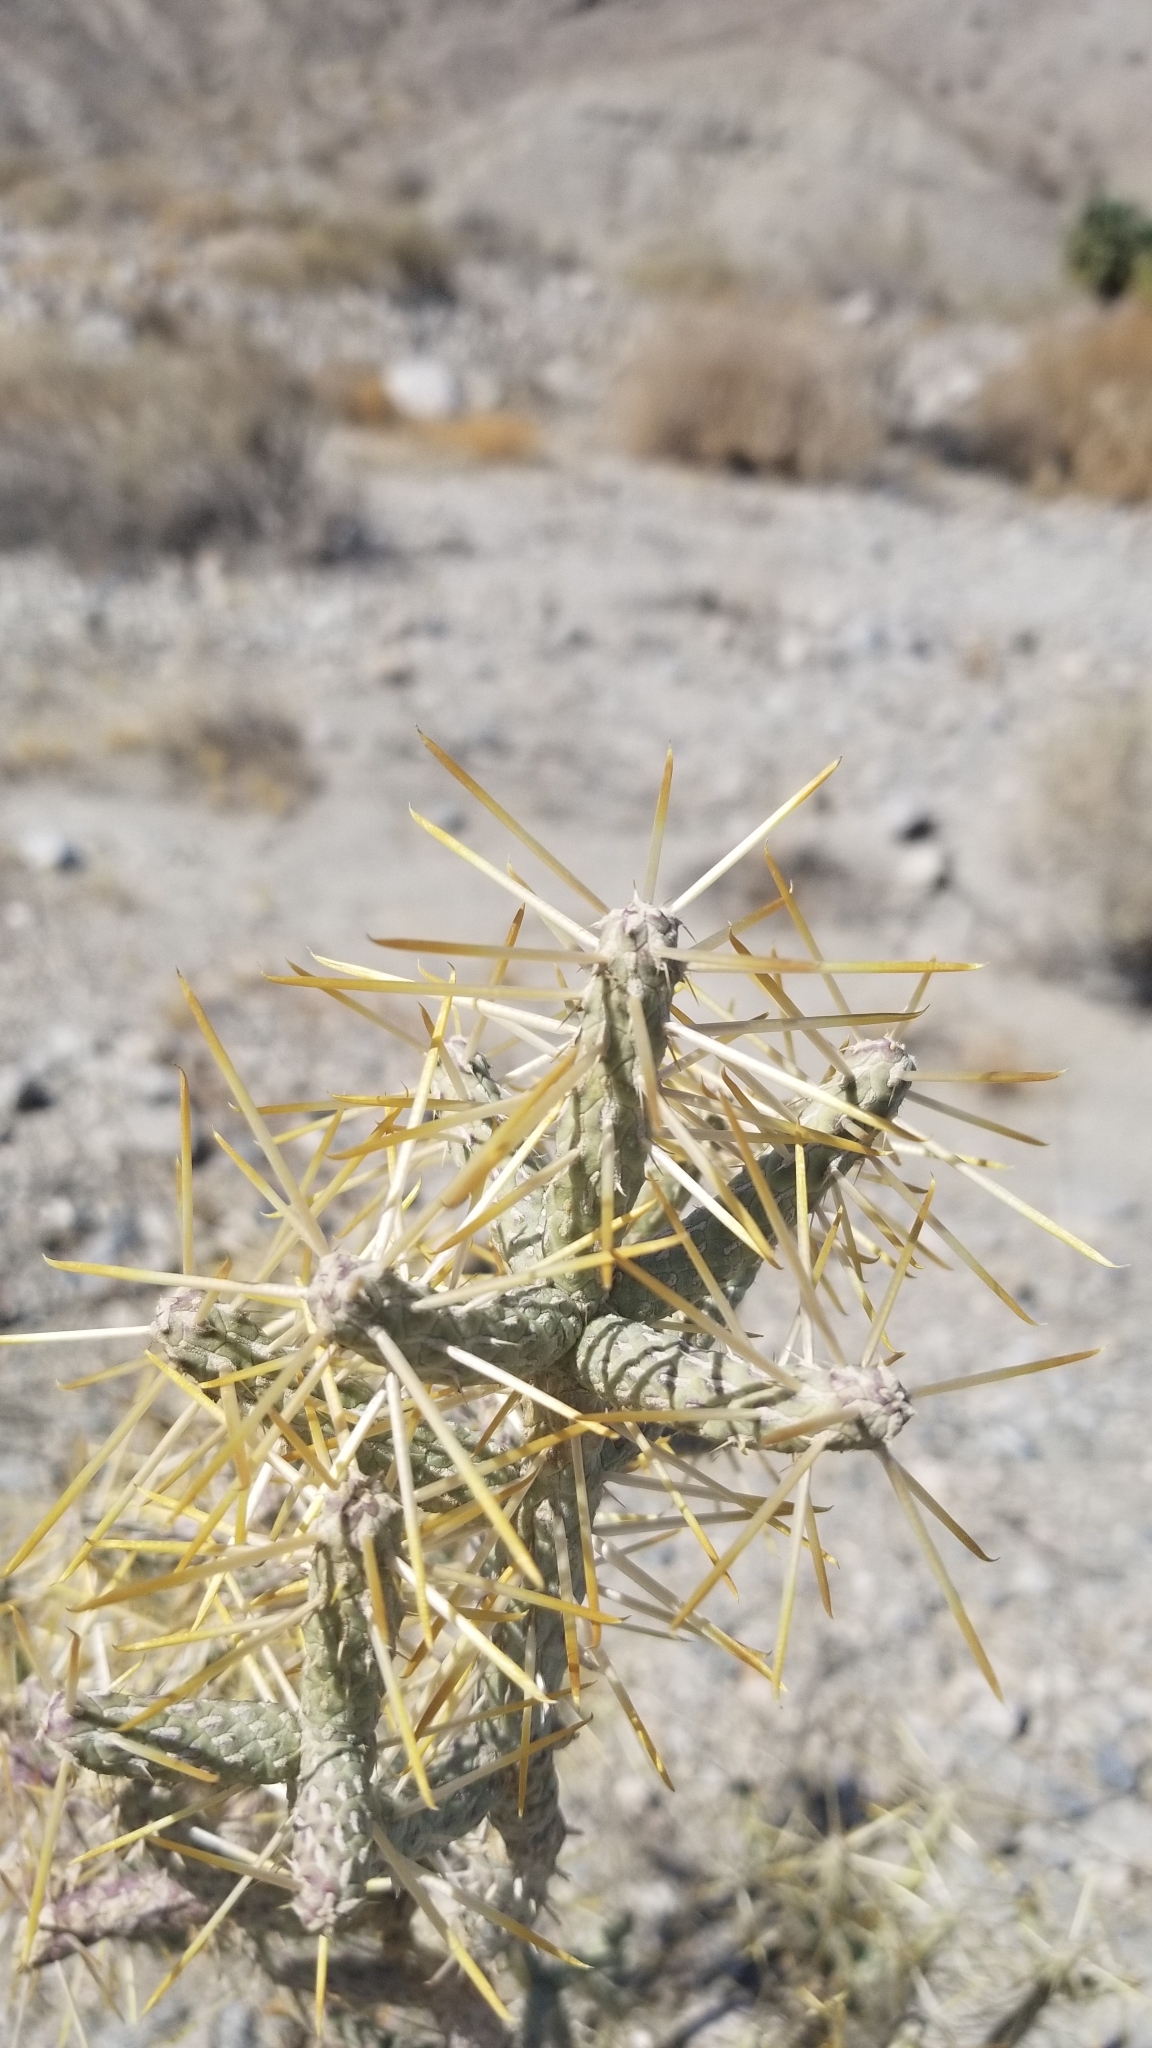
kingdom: Plantae
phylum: Tracheophyta
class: Magnoliopsida
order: Caryophyllales
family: Cactaceae
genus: Cylindropuntia
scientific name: Cylindropuntia ramosissima
